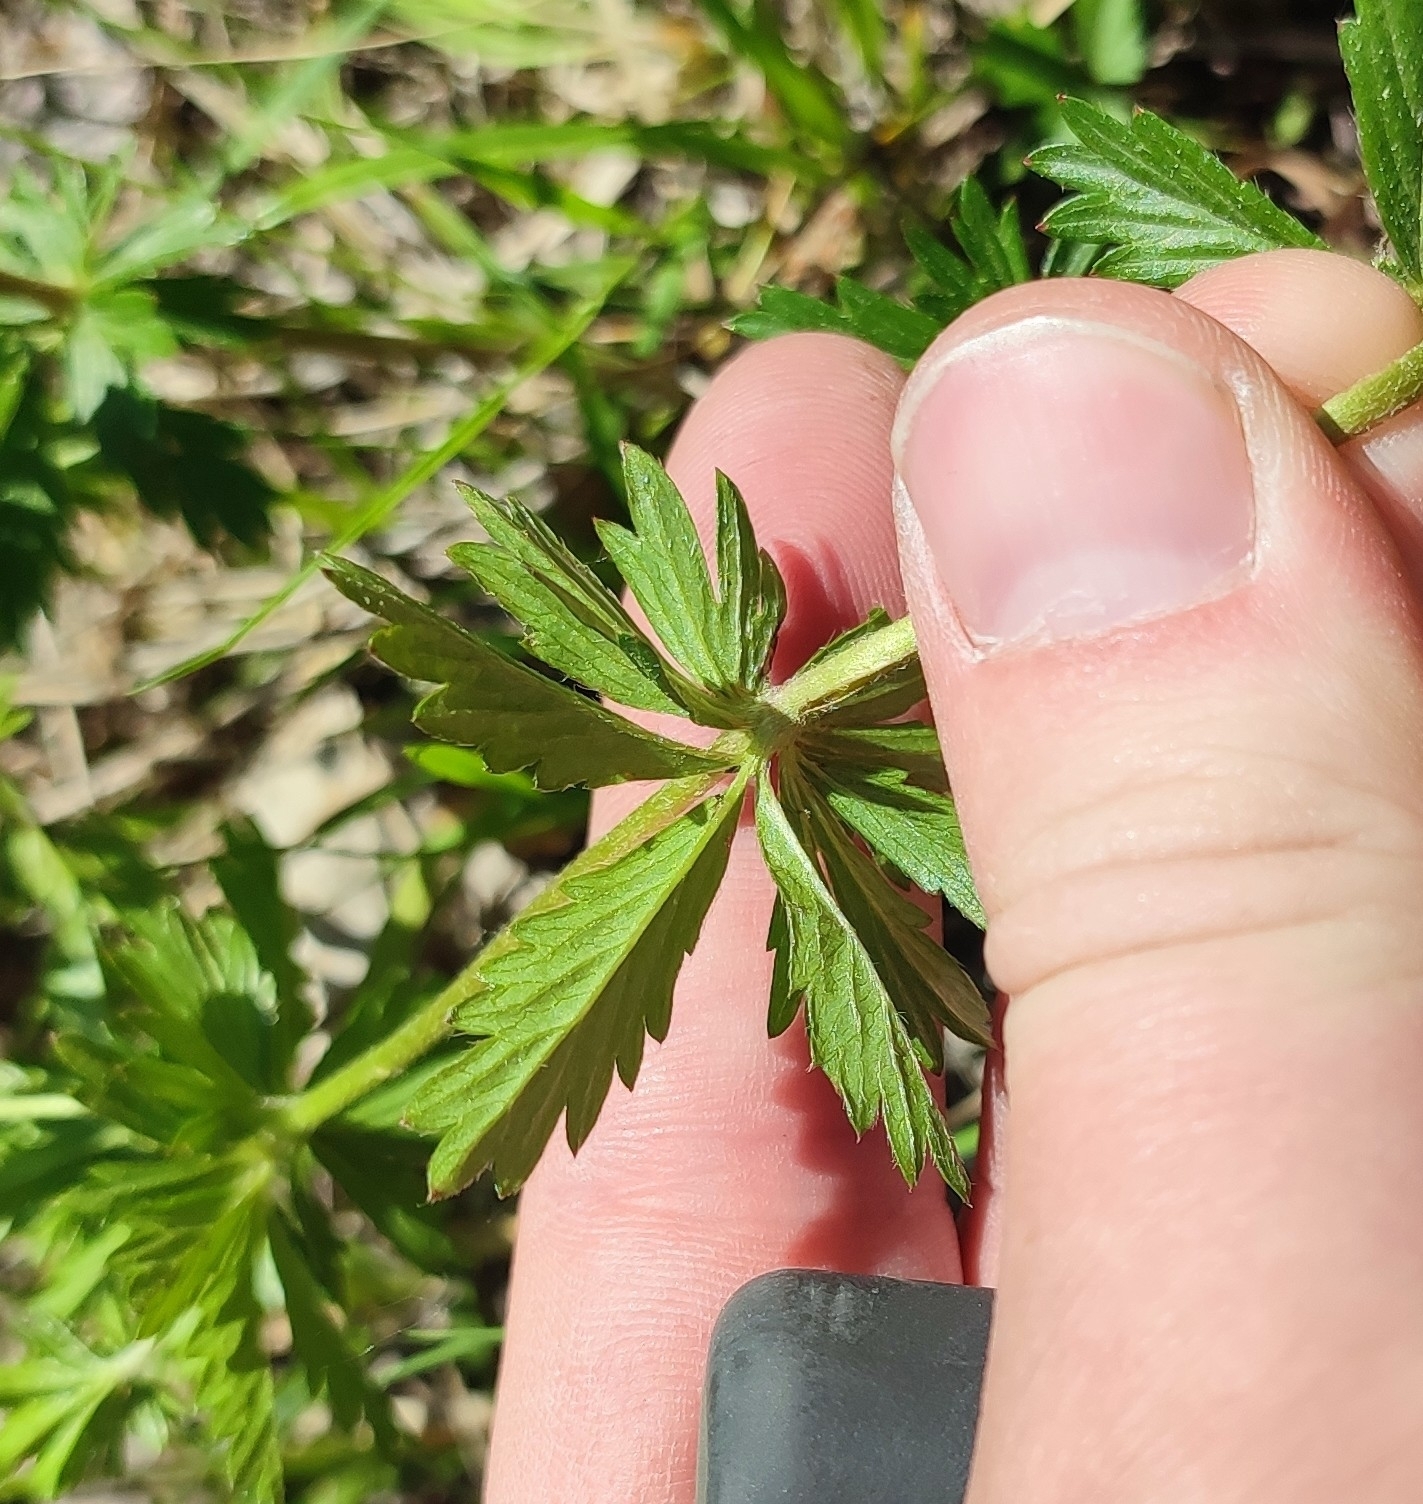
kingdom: Plantae
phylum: Tracheophyta
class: Magnoliopsida
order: Rosales
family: Rosaceae
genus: Potentilla
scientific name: Potentilla erecta
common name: Tormentil
